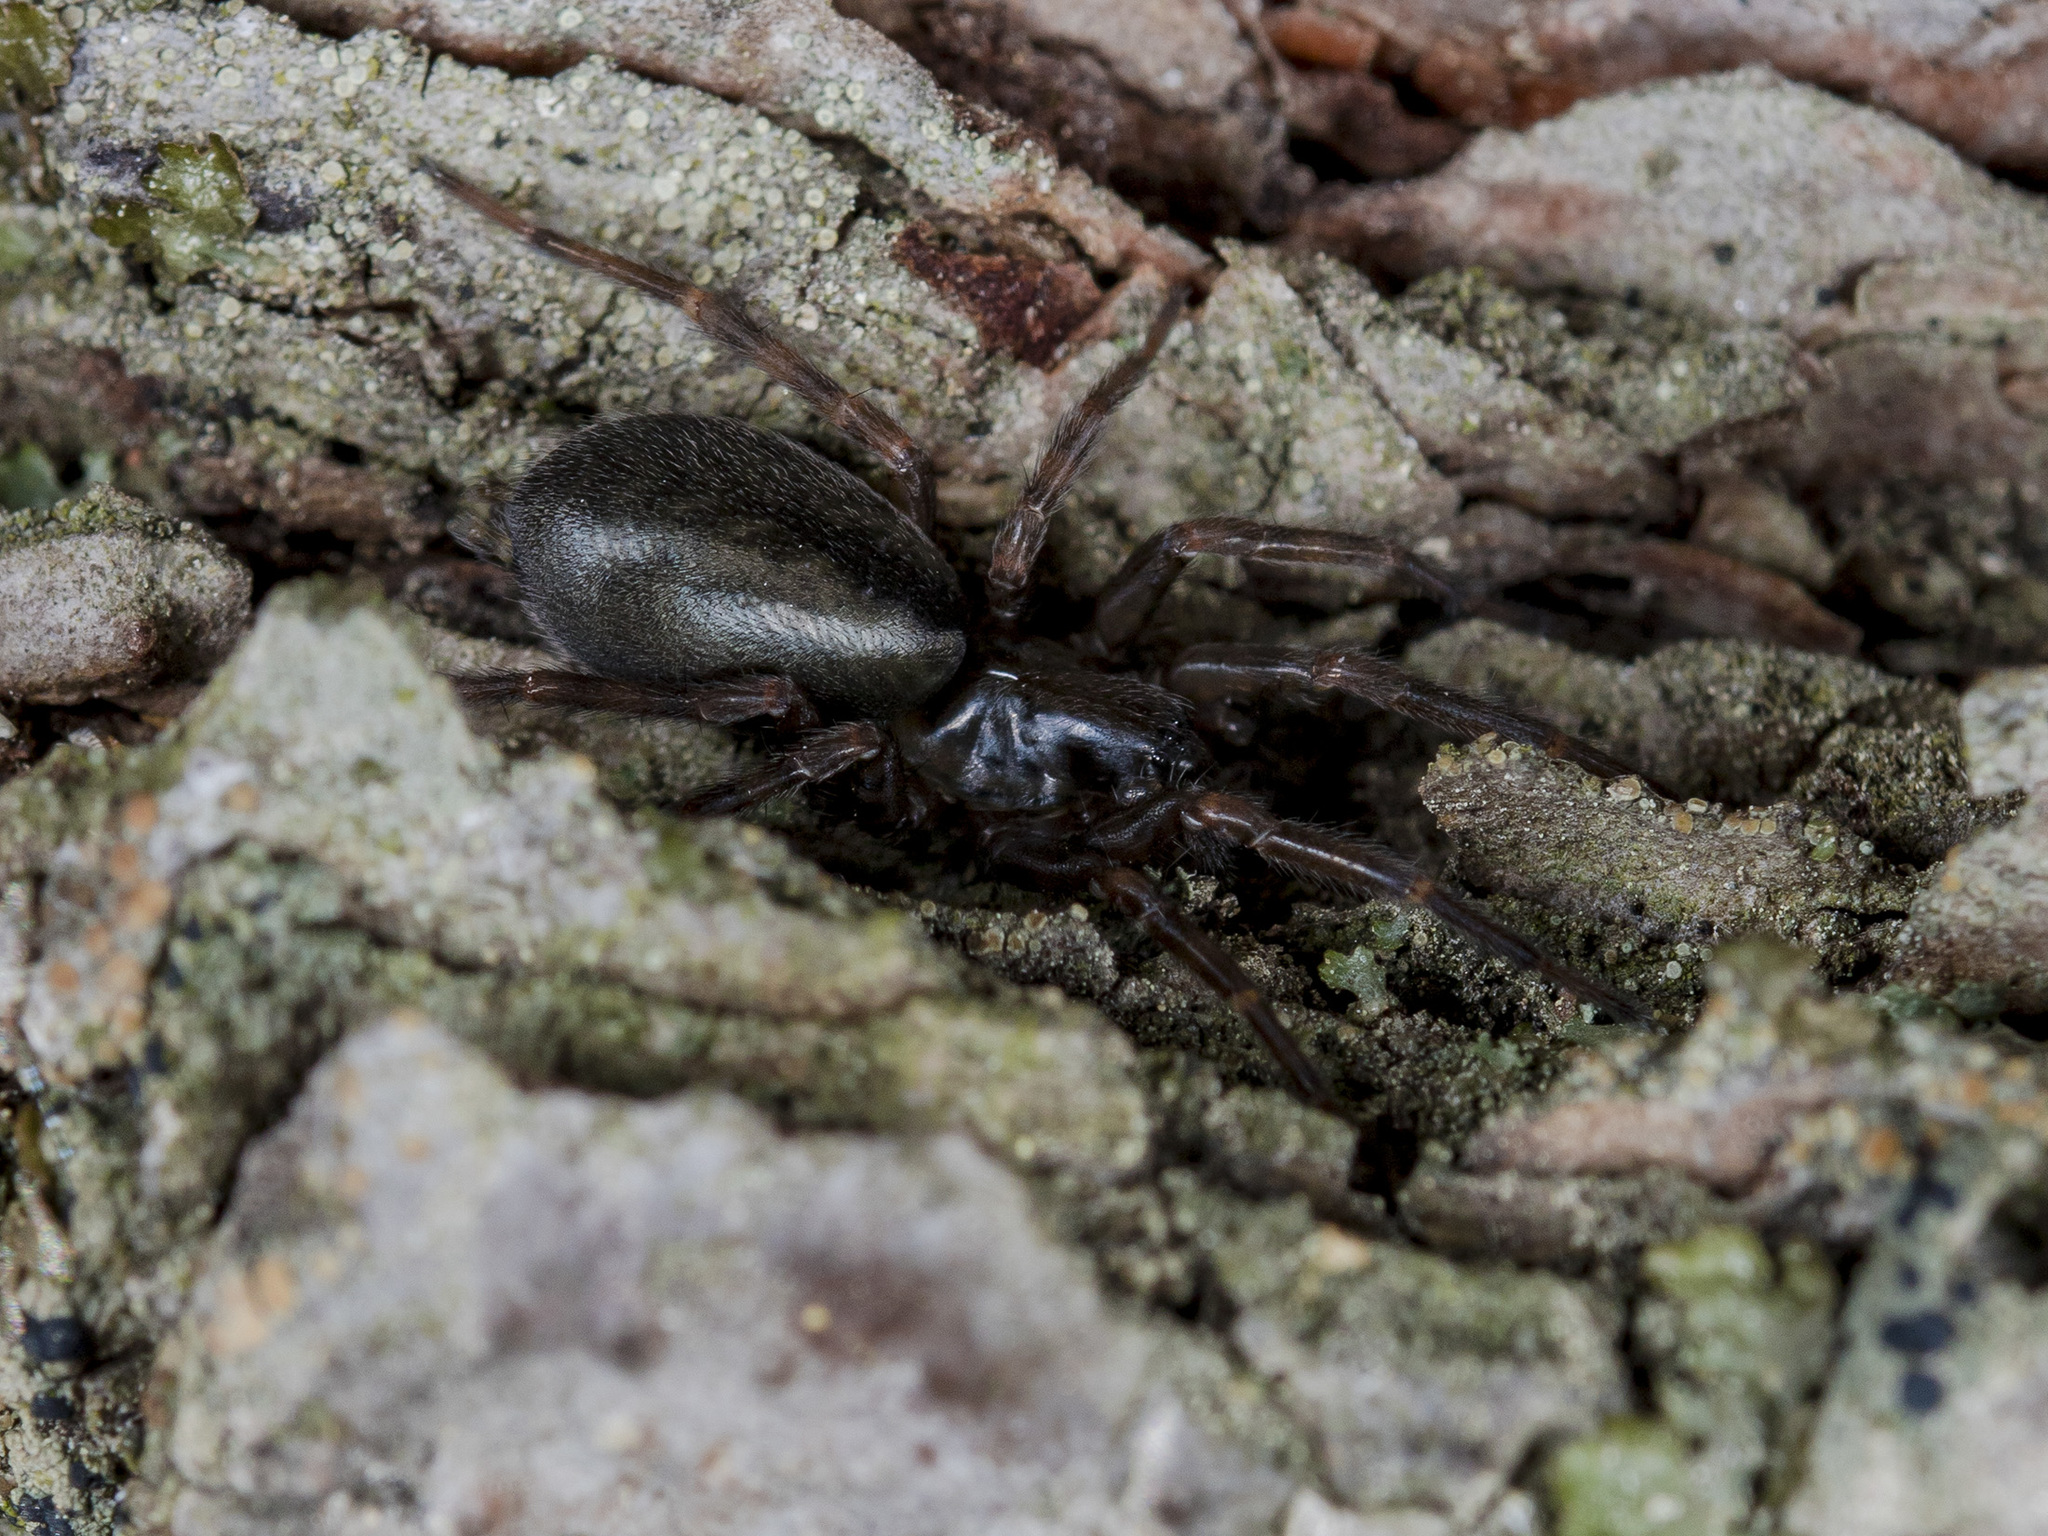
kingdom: Animalia
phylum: Arthropoda
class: Arachnida
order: Araneae
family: Agelenidae
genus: Coelotes
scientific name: Coelotes transiliensis
